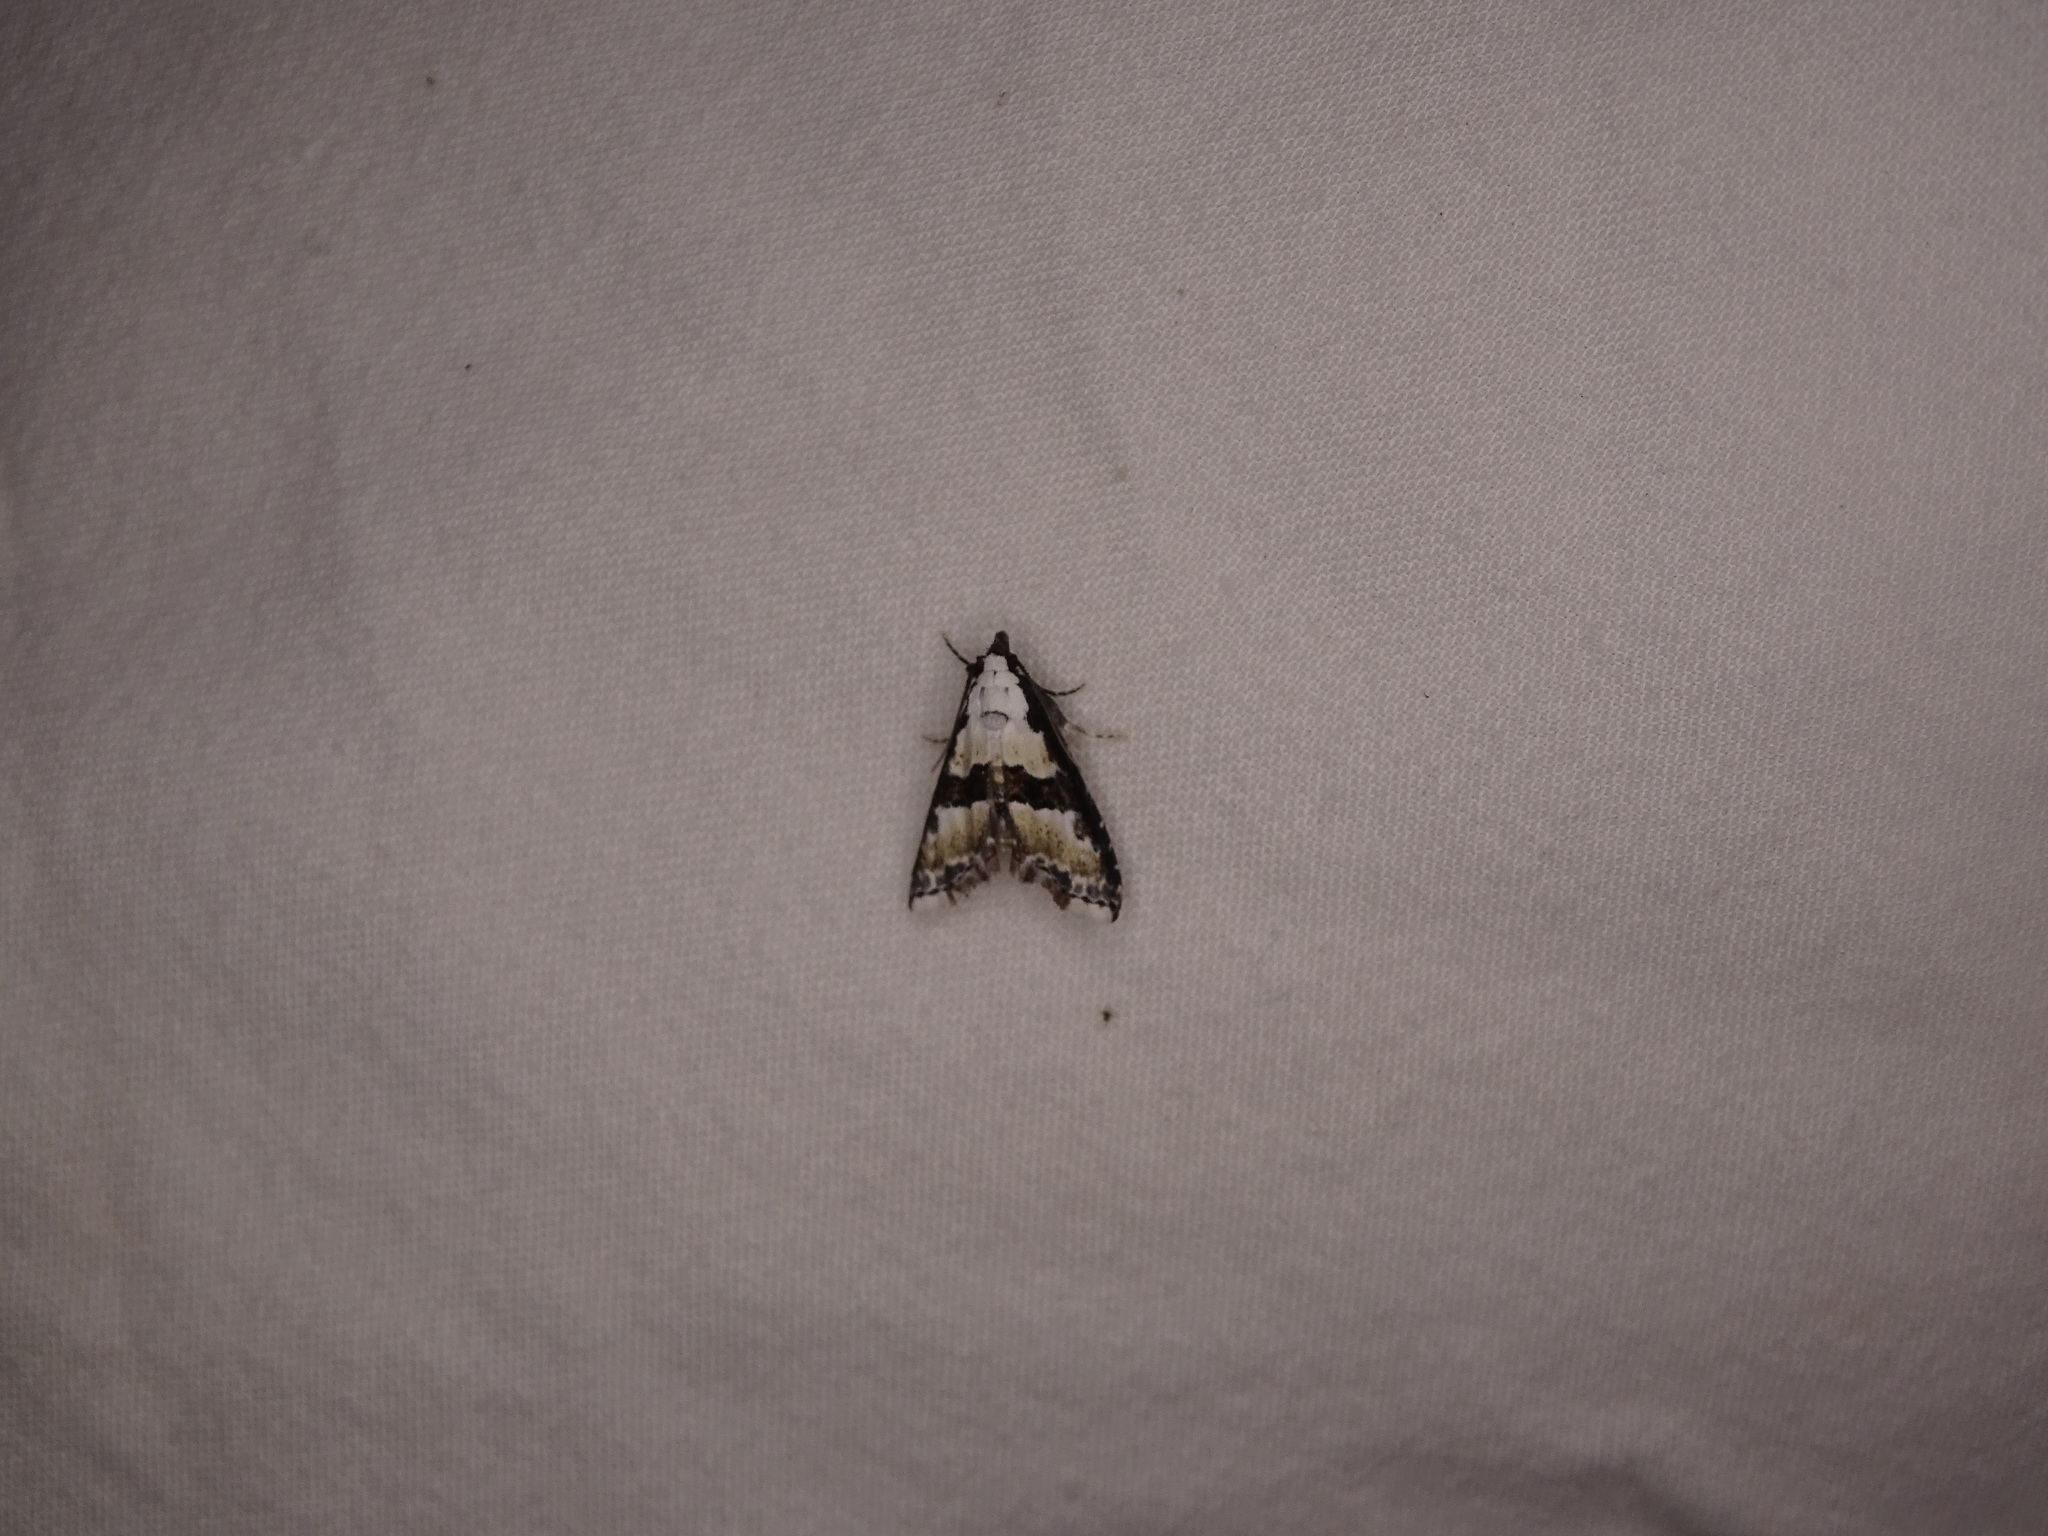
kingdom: Animalia
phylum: Arthropoda
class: Insecta
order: Lepidoptera
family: Noctuidae
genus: Nigetia
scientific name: Nigetia formosalis
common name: Thin-winged owlet
